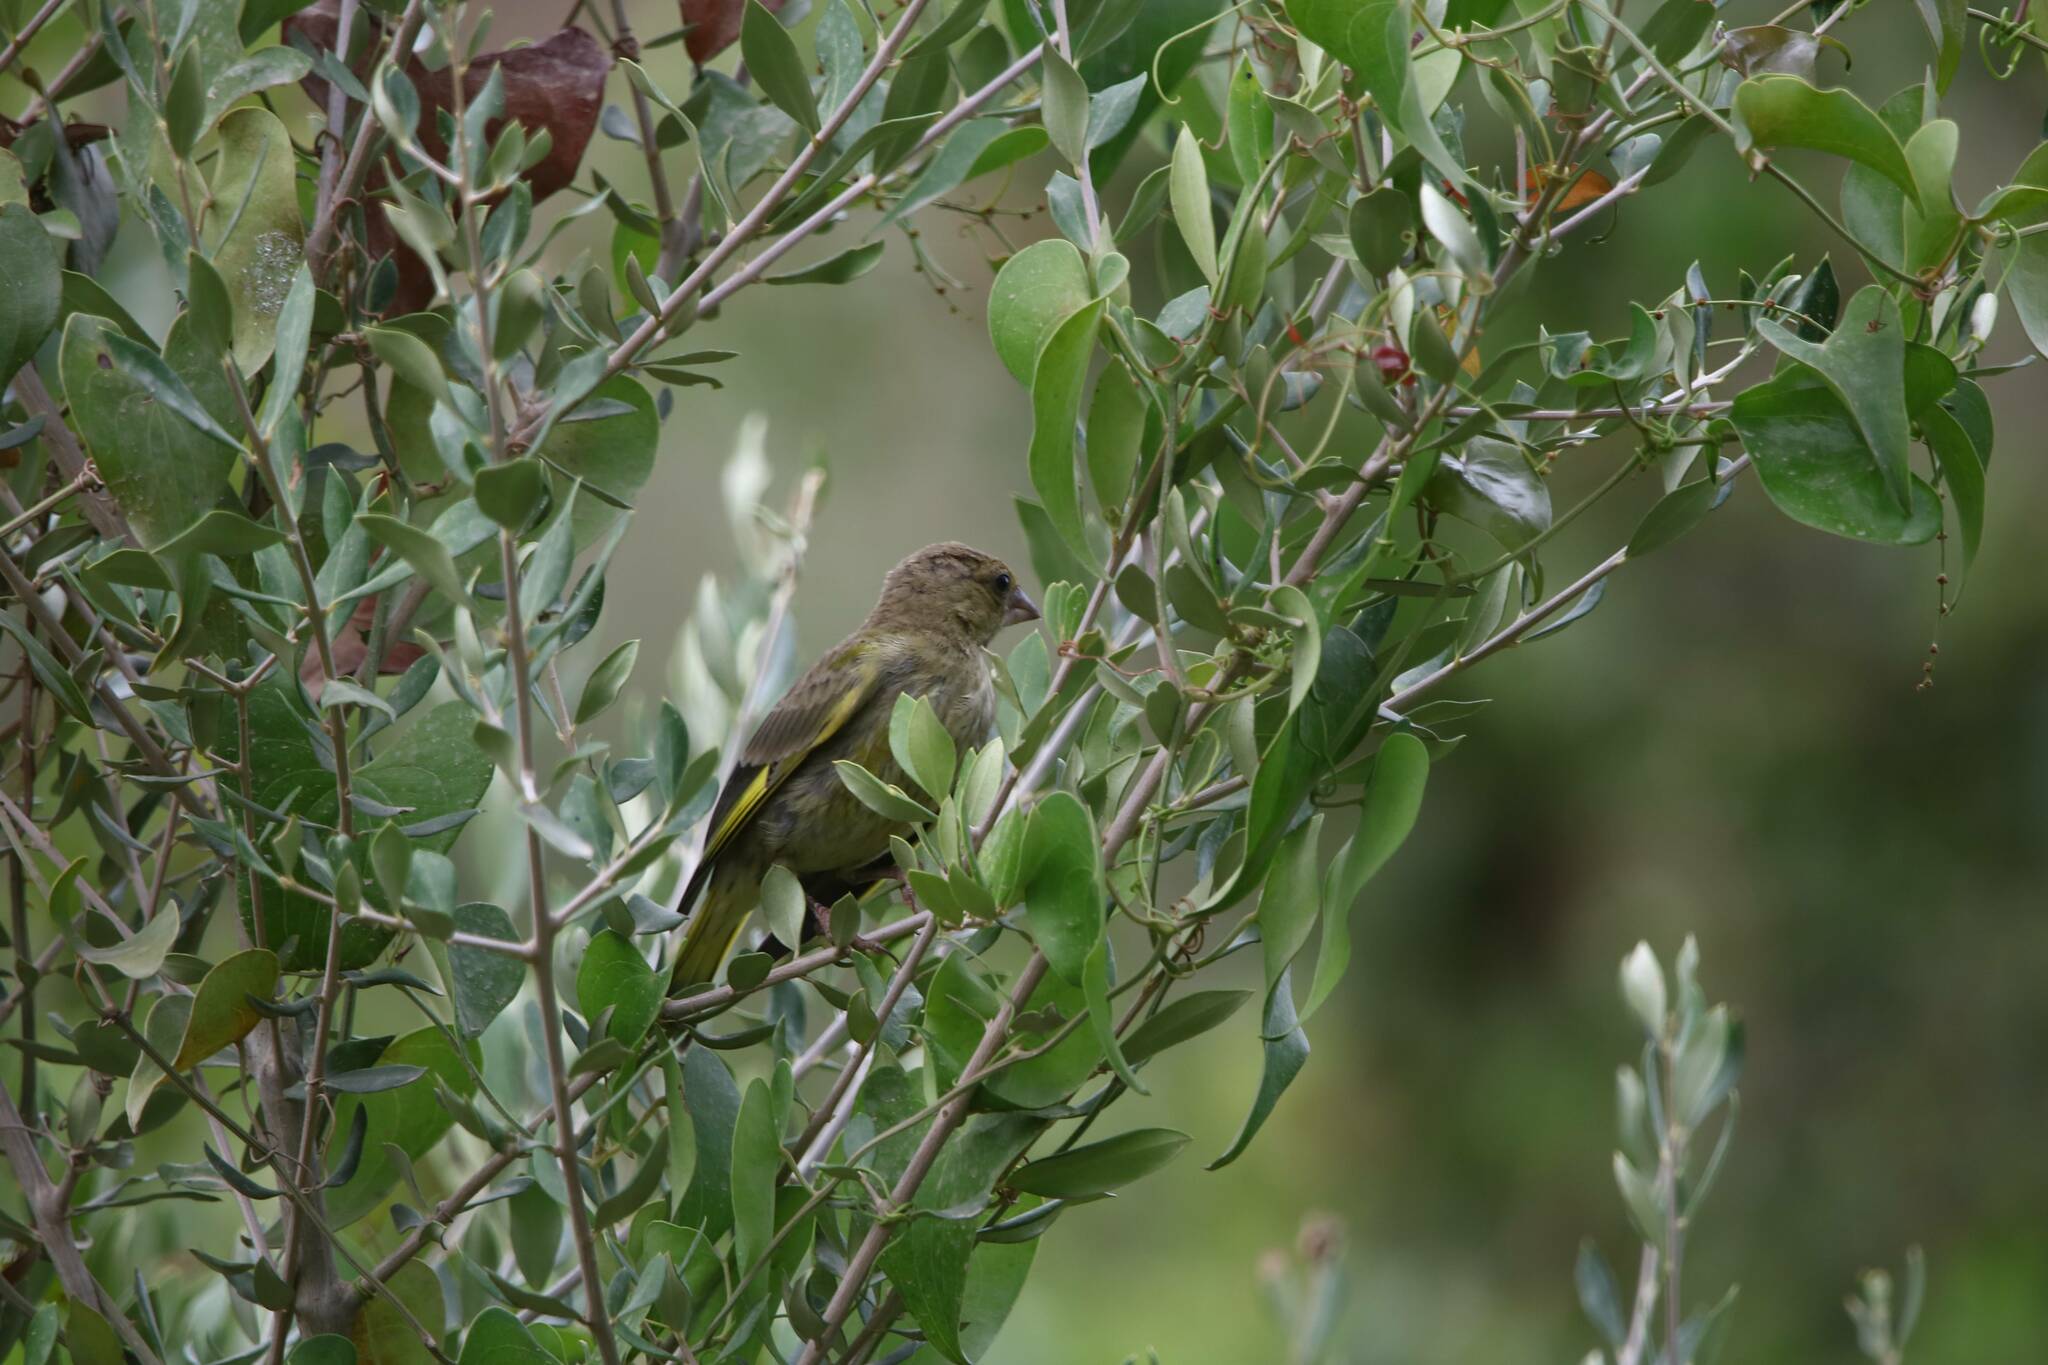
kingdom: Plantae
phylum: Tracheophyta
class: Liliopsida
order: Poales
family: Poaceae
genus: Chloris
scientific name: Chloris chloris
